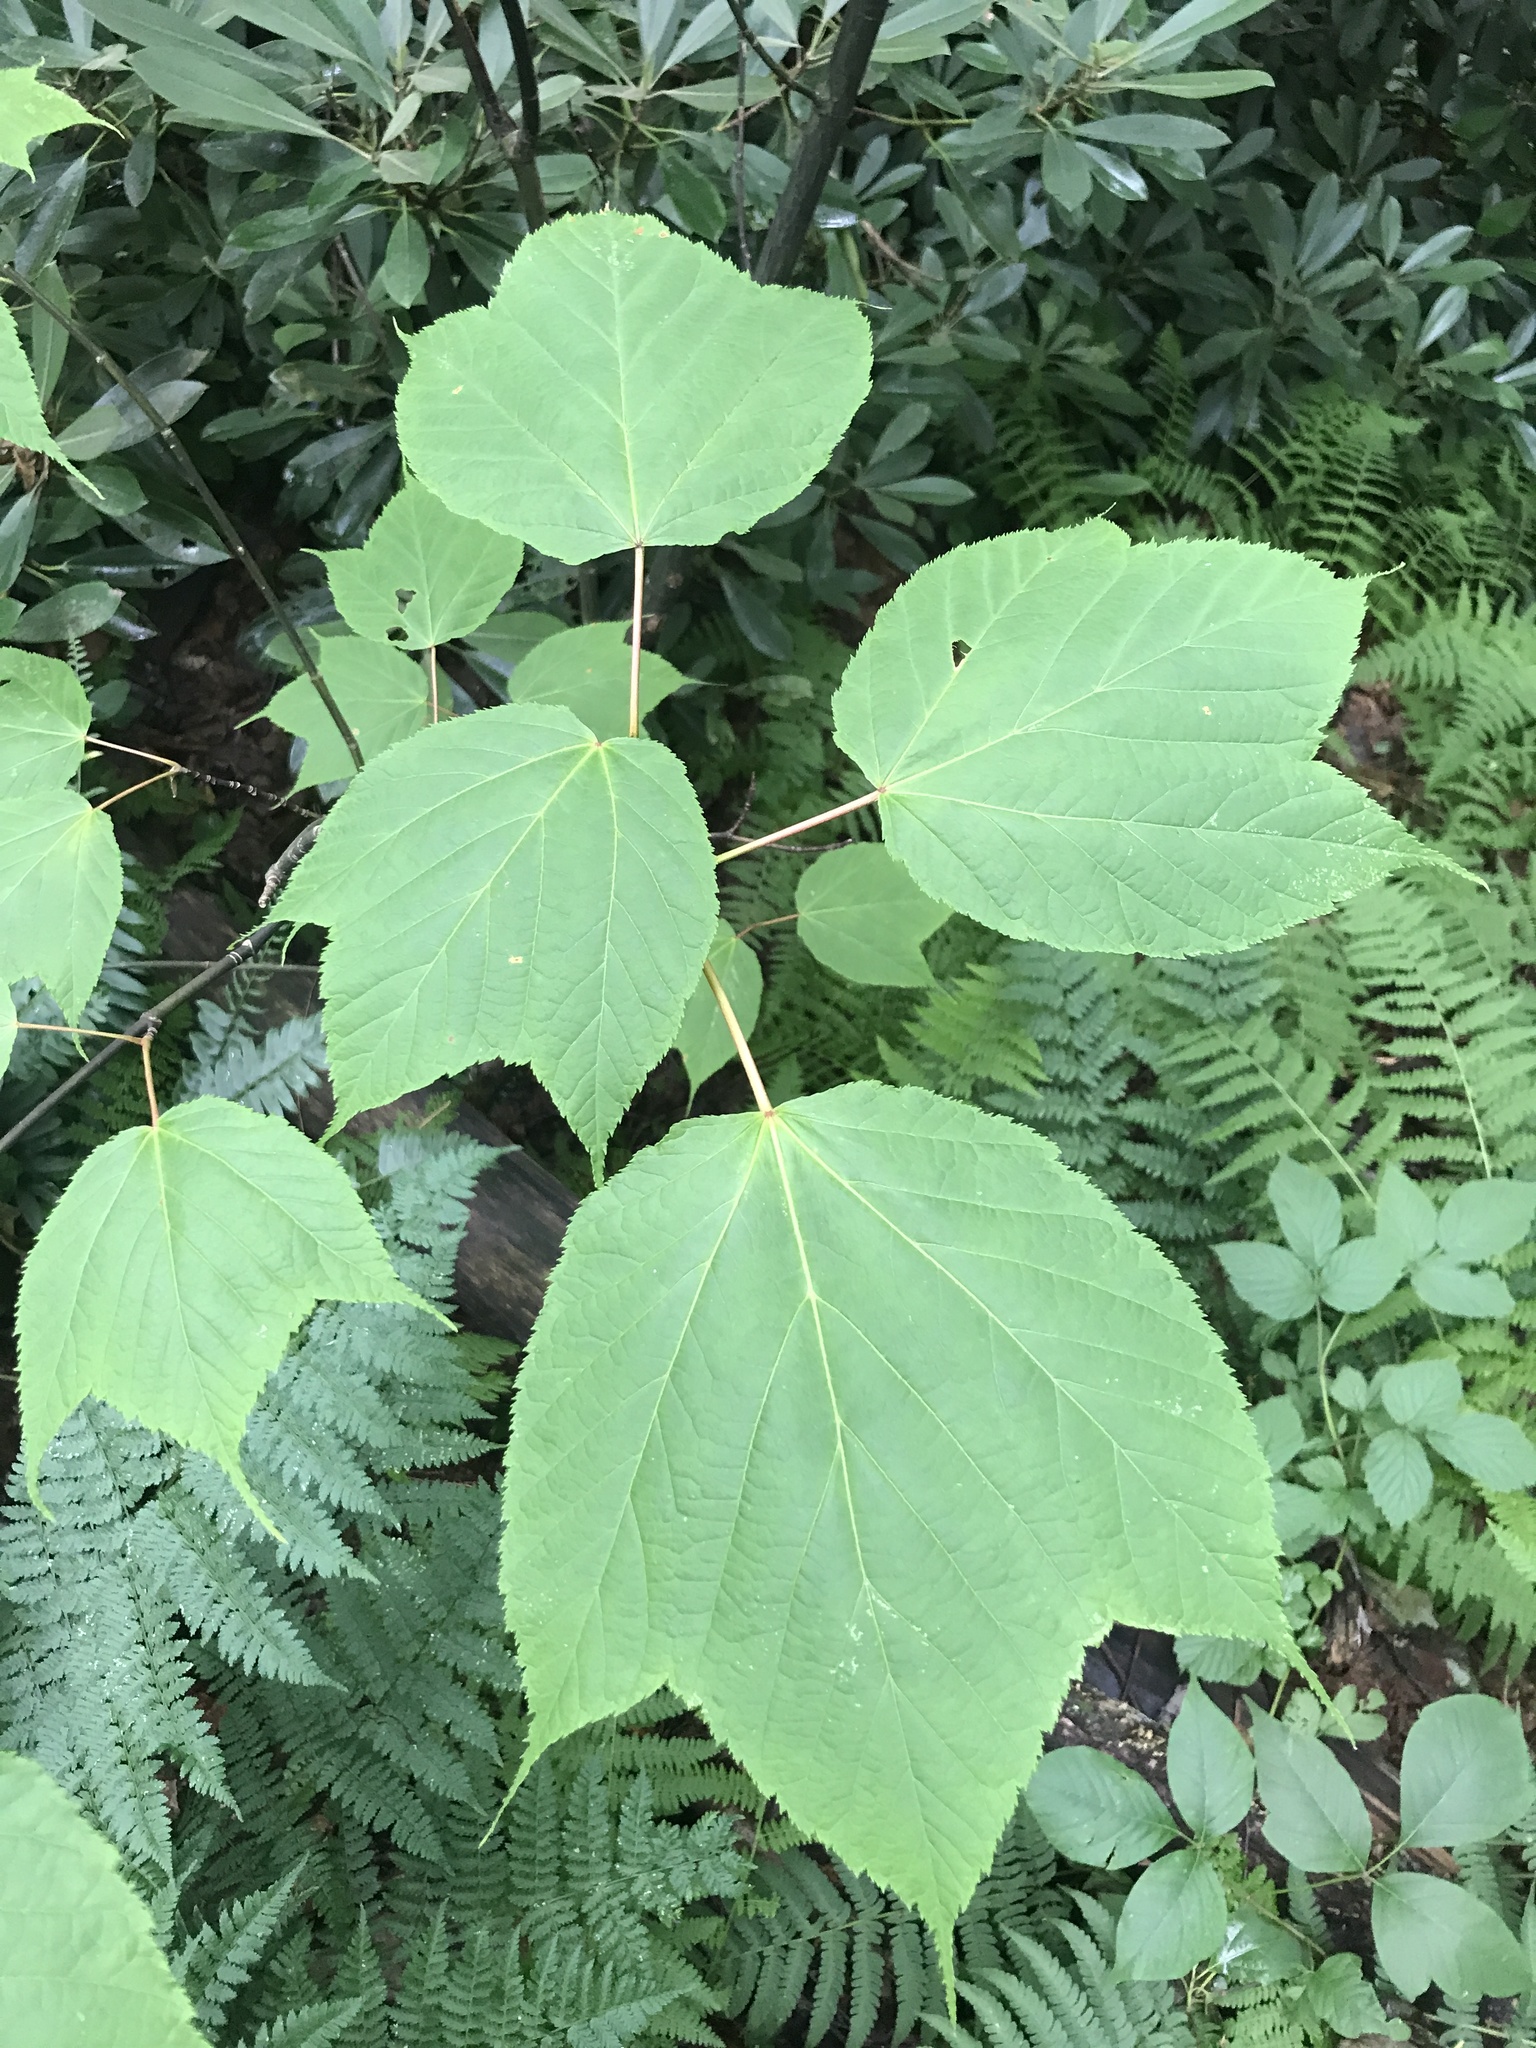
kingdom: Plantae
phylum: Tracheophyta
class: Magnoliopsida
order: Sapindales
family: Sapindaceae
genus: Acer
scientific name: Acer pensylvanicum
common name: Moosewood
